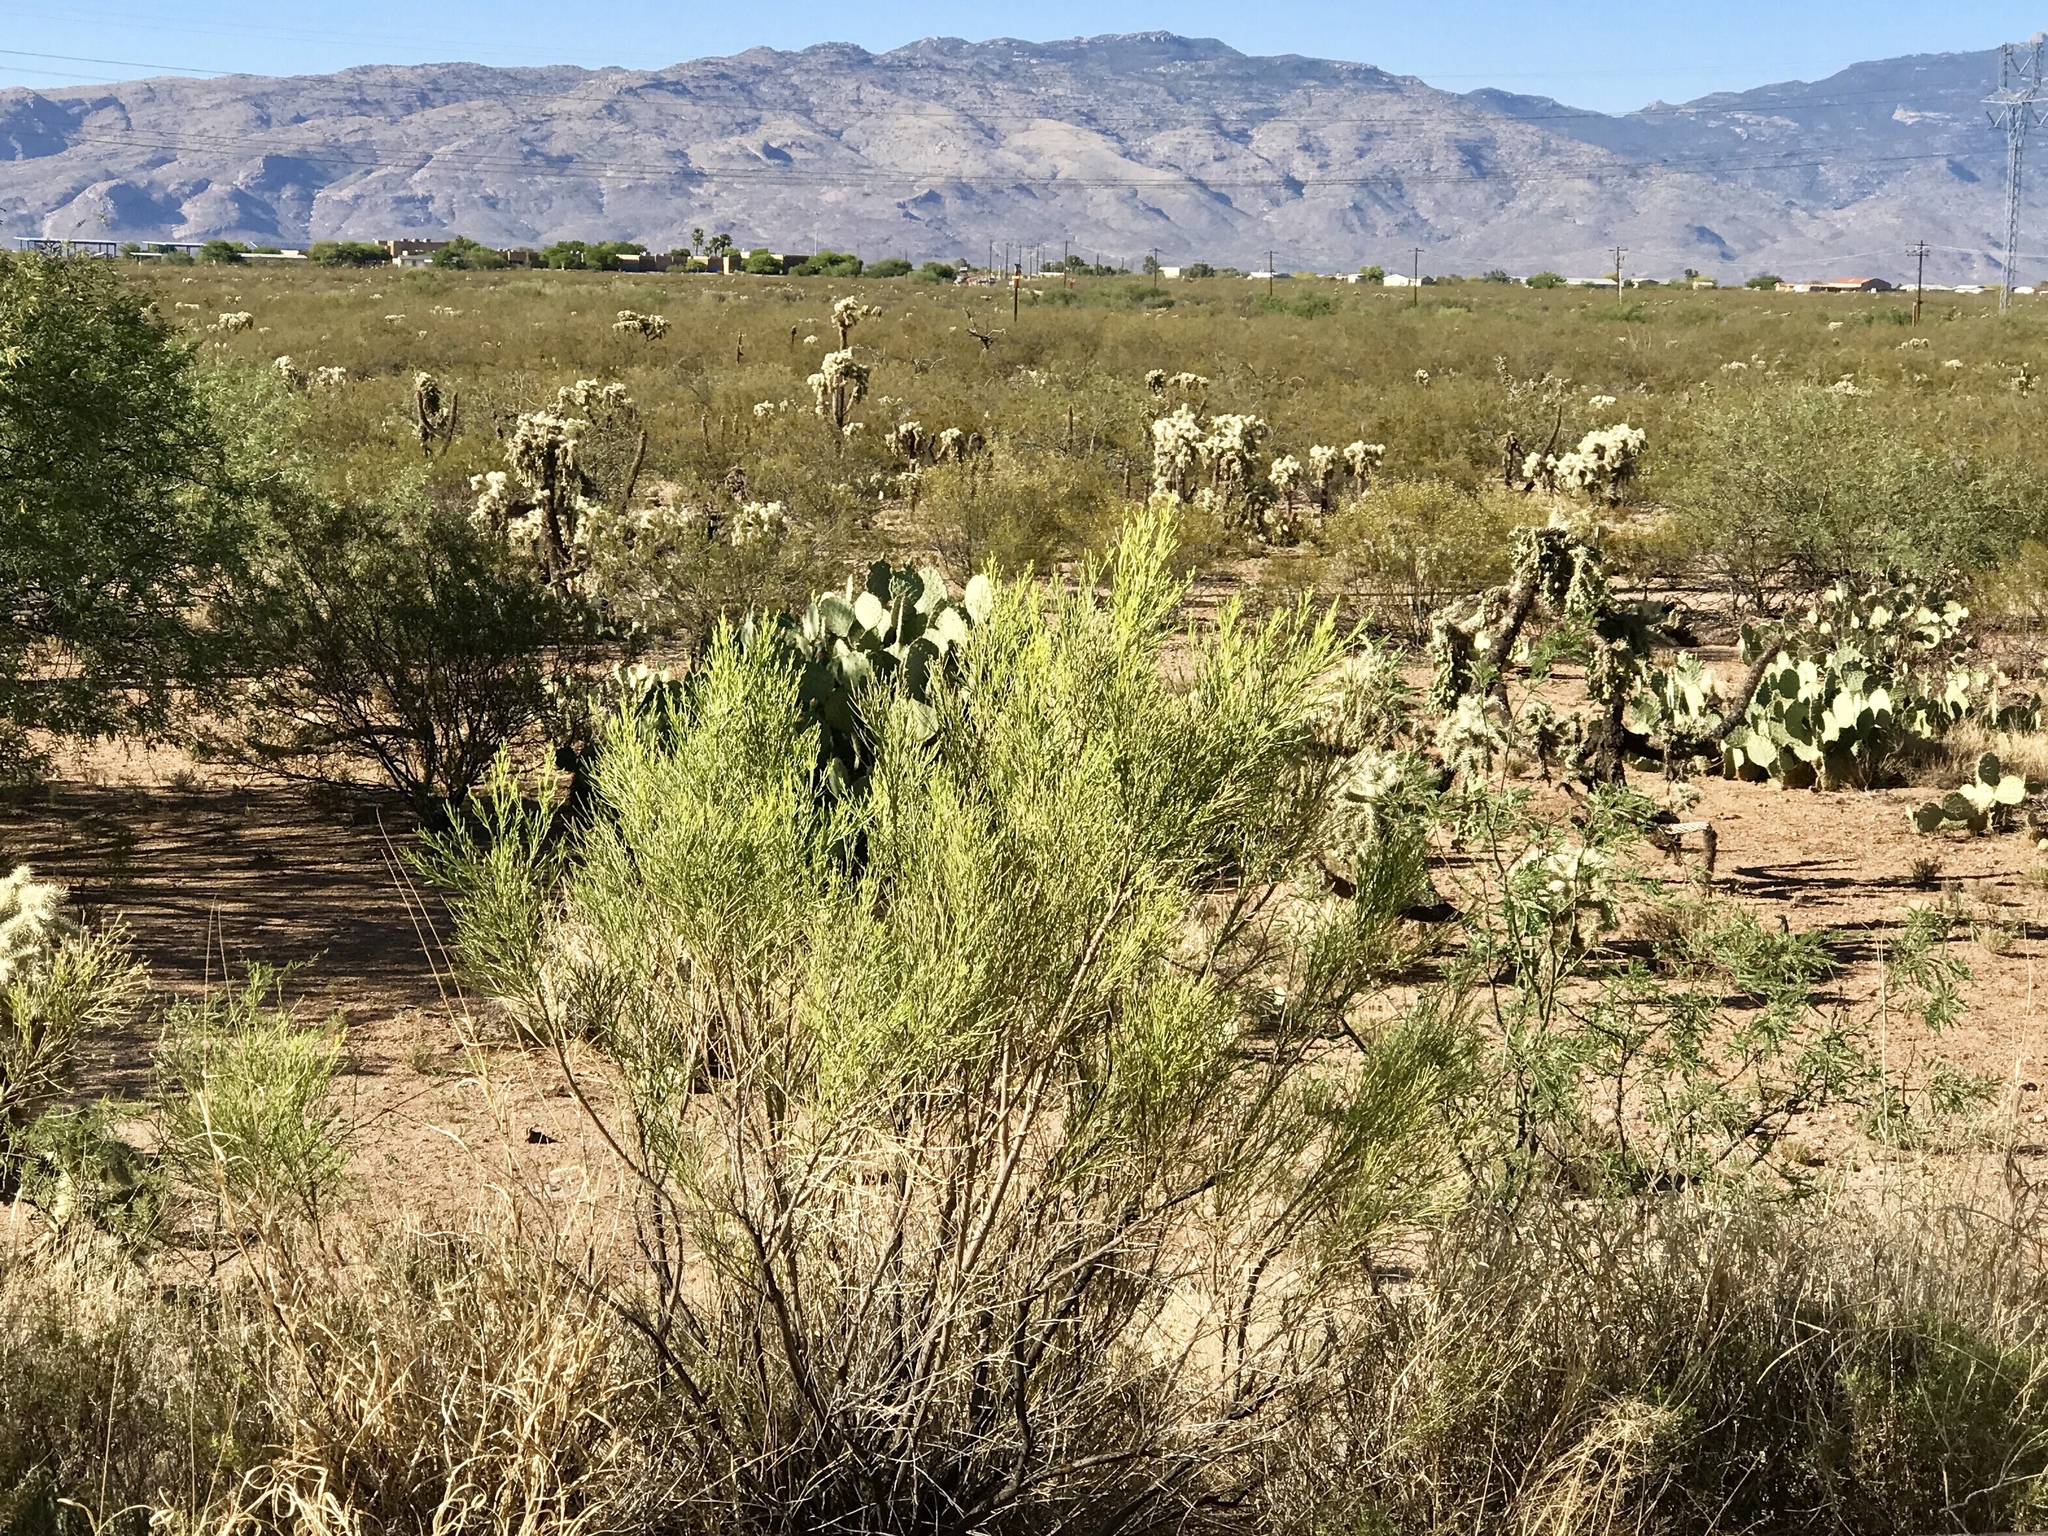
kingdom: Plantae
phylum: Tracheophyta
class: Magnoliopsida
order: Asterales
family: Asteraceae
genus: Baccharis
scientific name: Baccharis sarothroides
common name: Desert-broom
